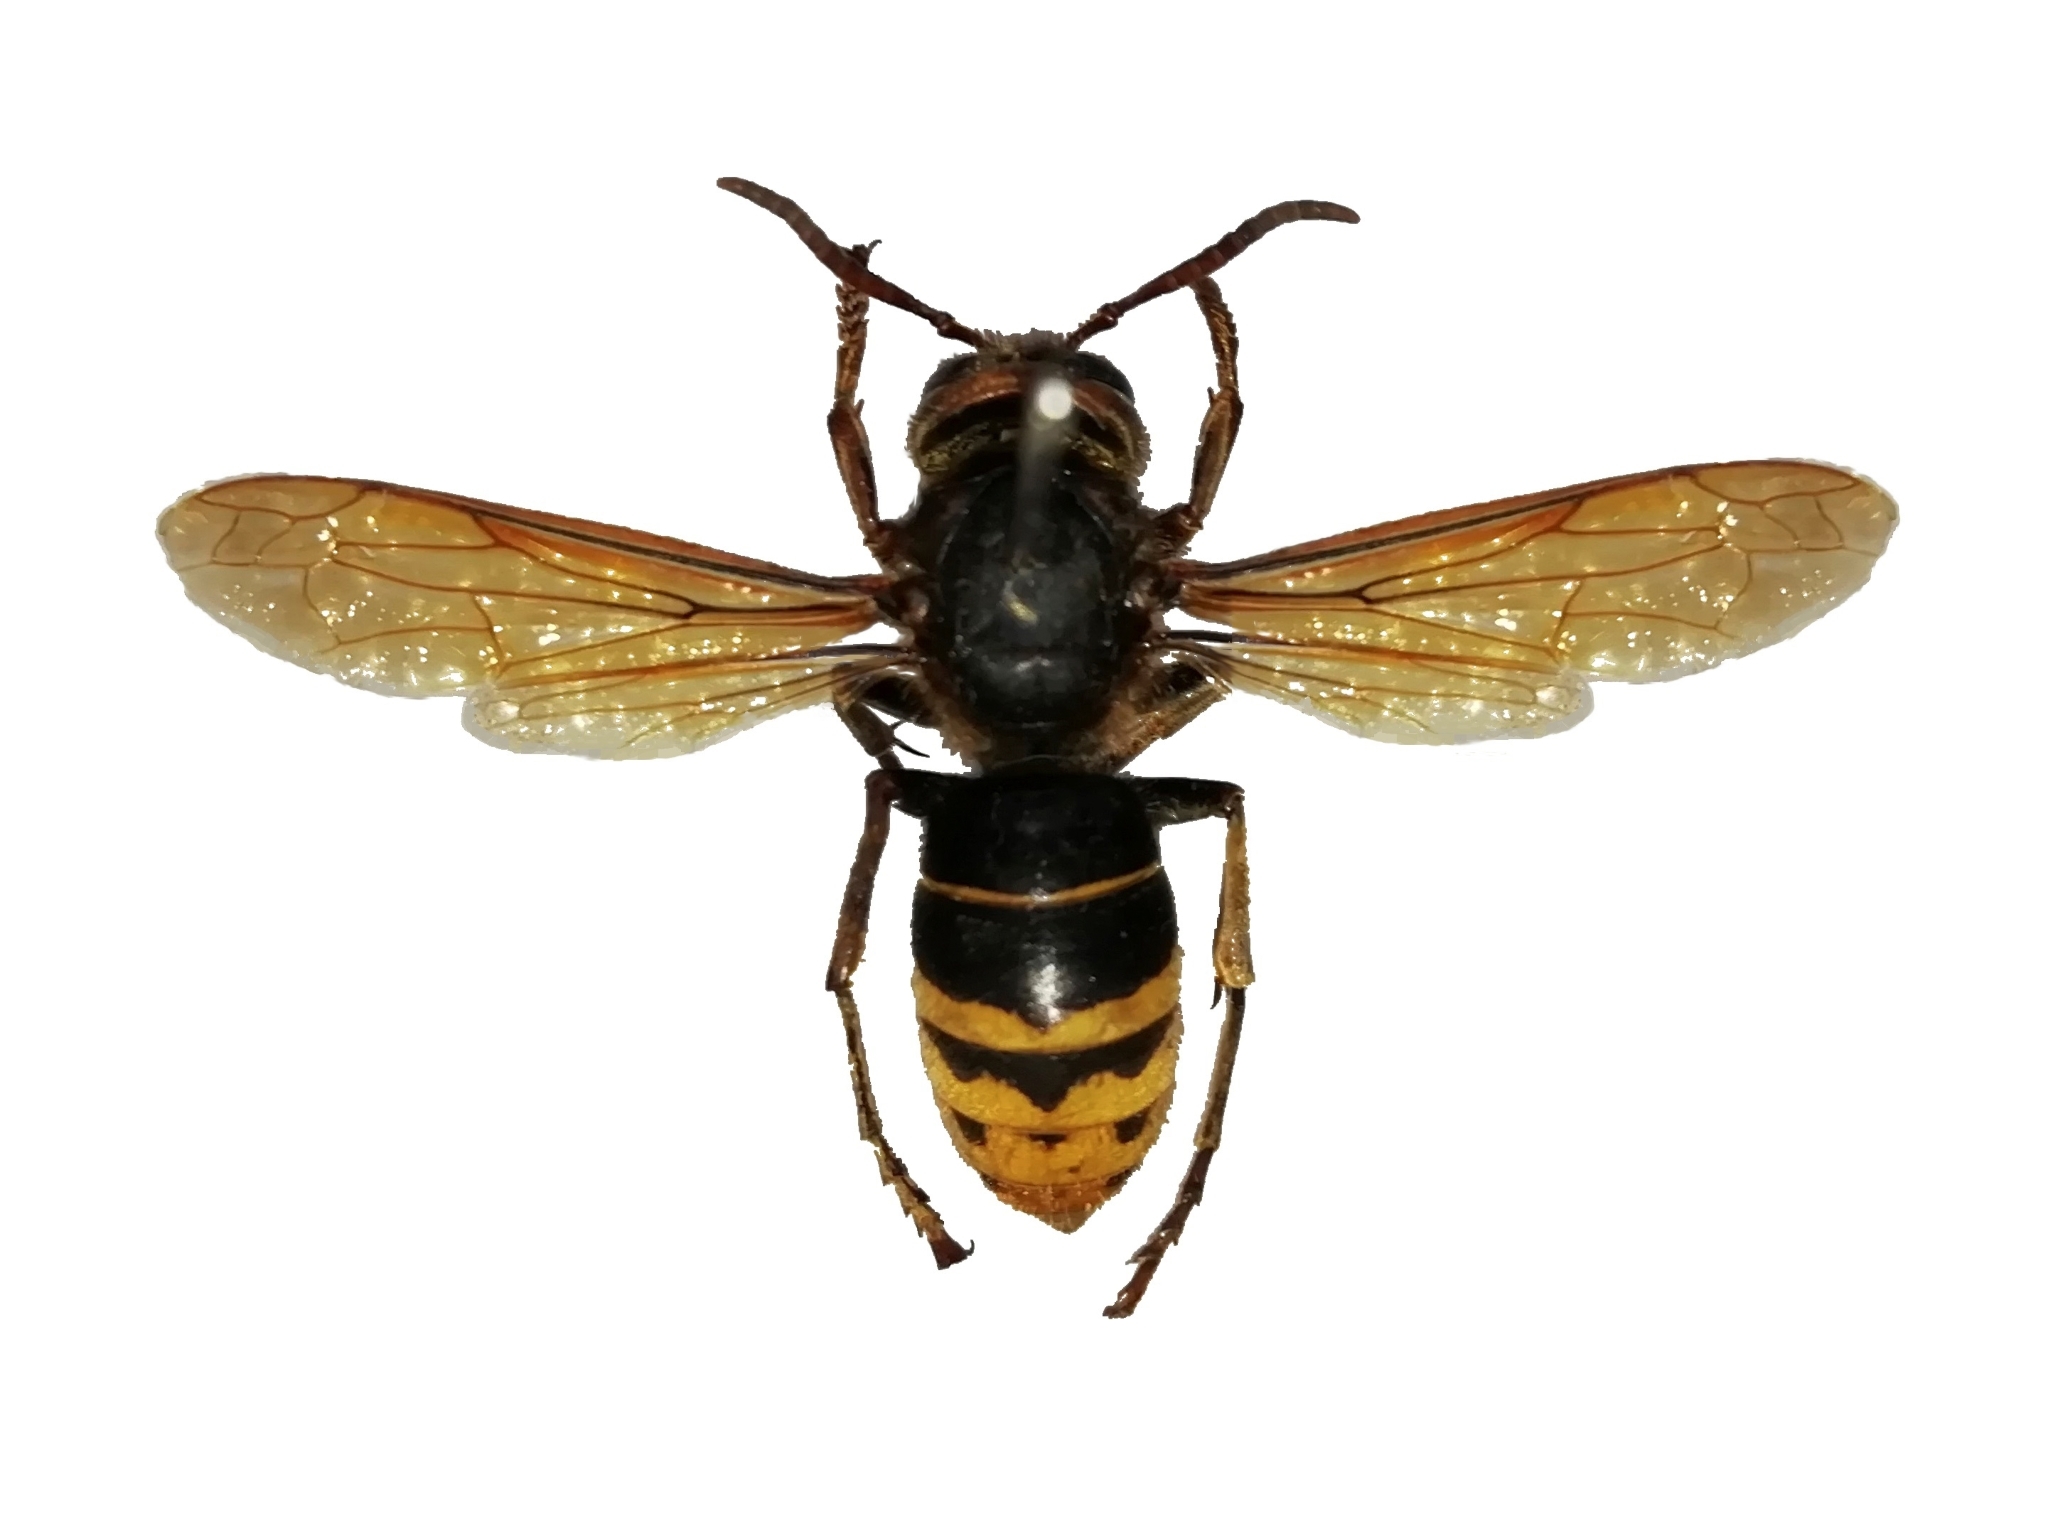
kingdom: Animalia
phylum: Arthropoda
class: Insecta
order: Hymenoptera
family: Vespidae
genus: Vespa
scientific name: Vespa crabro
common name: Hornet
